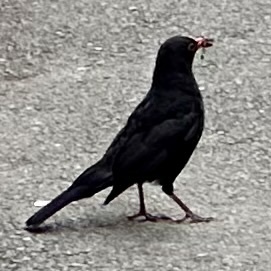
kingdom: Animalia
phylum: Chordata
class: Aves
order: Passeriformes
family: Turdidae
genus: Turdus
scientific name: Turdus merula
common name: Common blackbird
